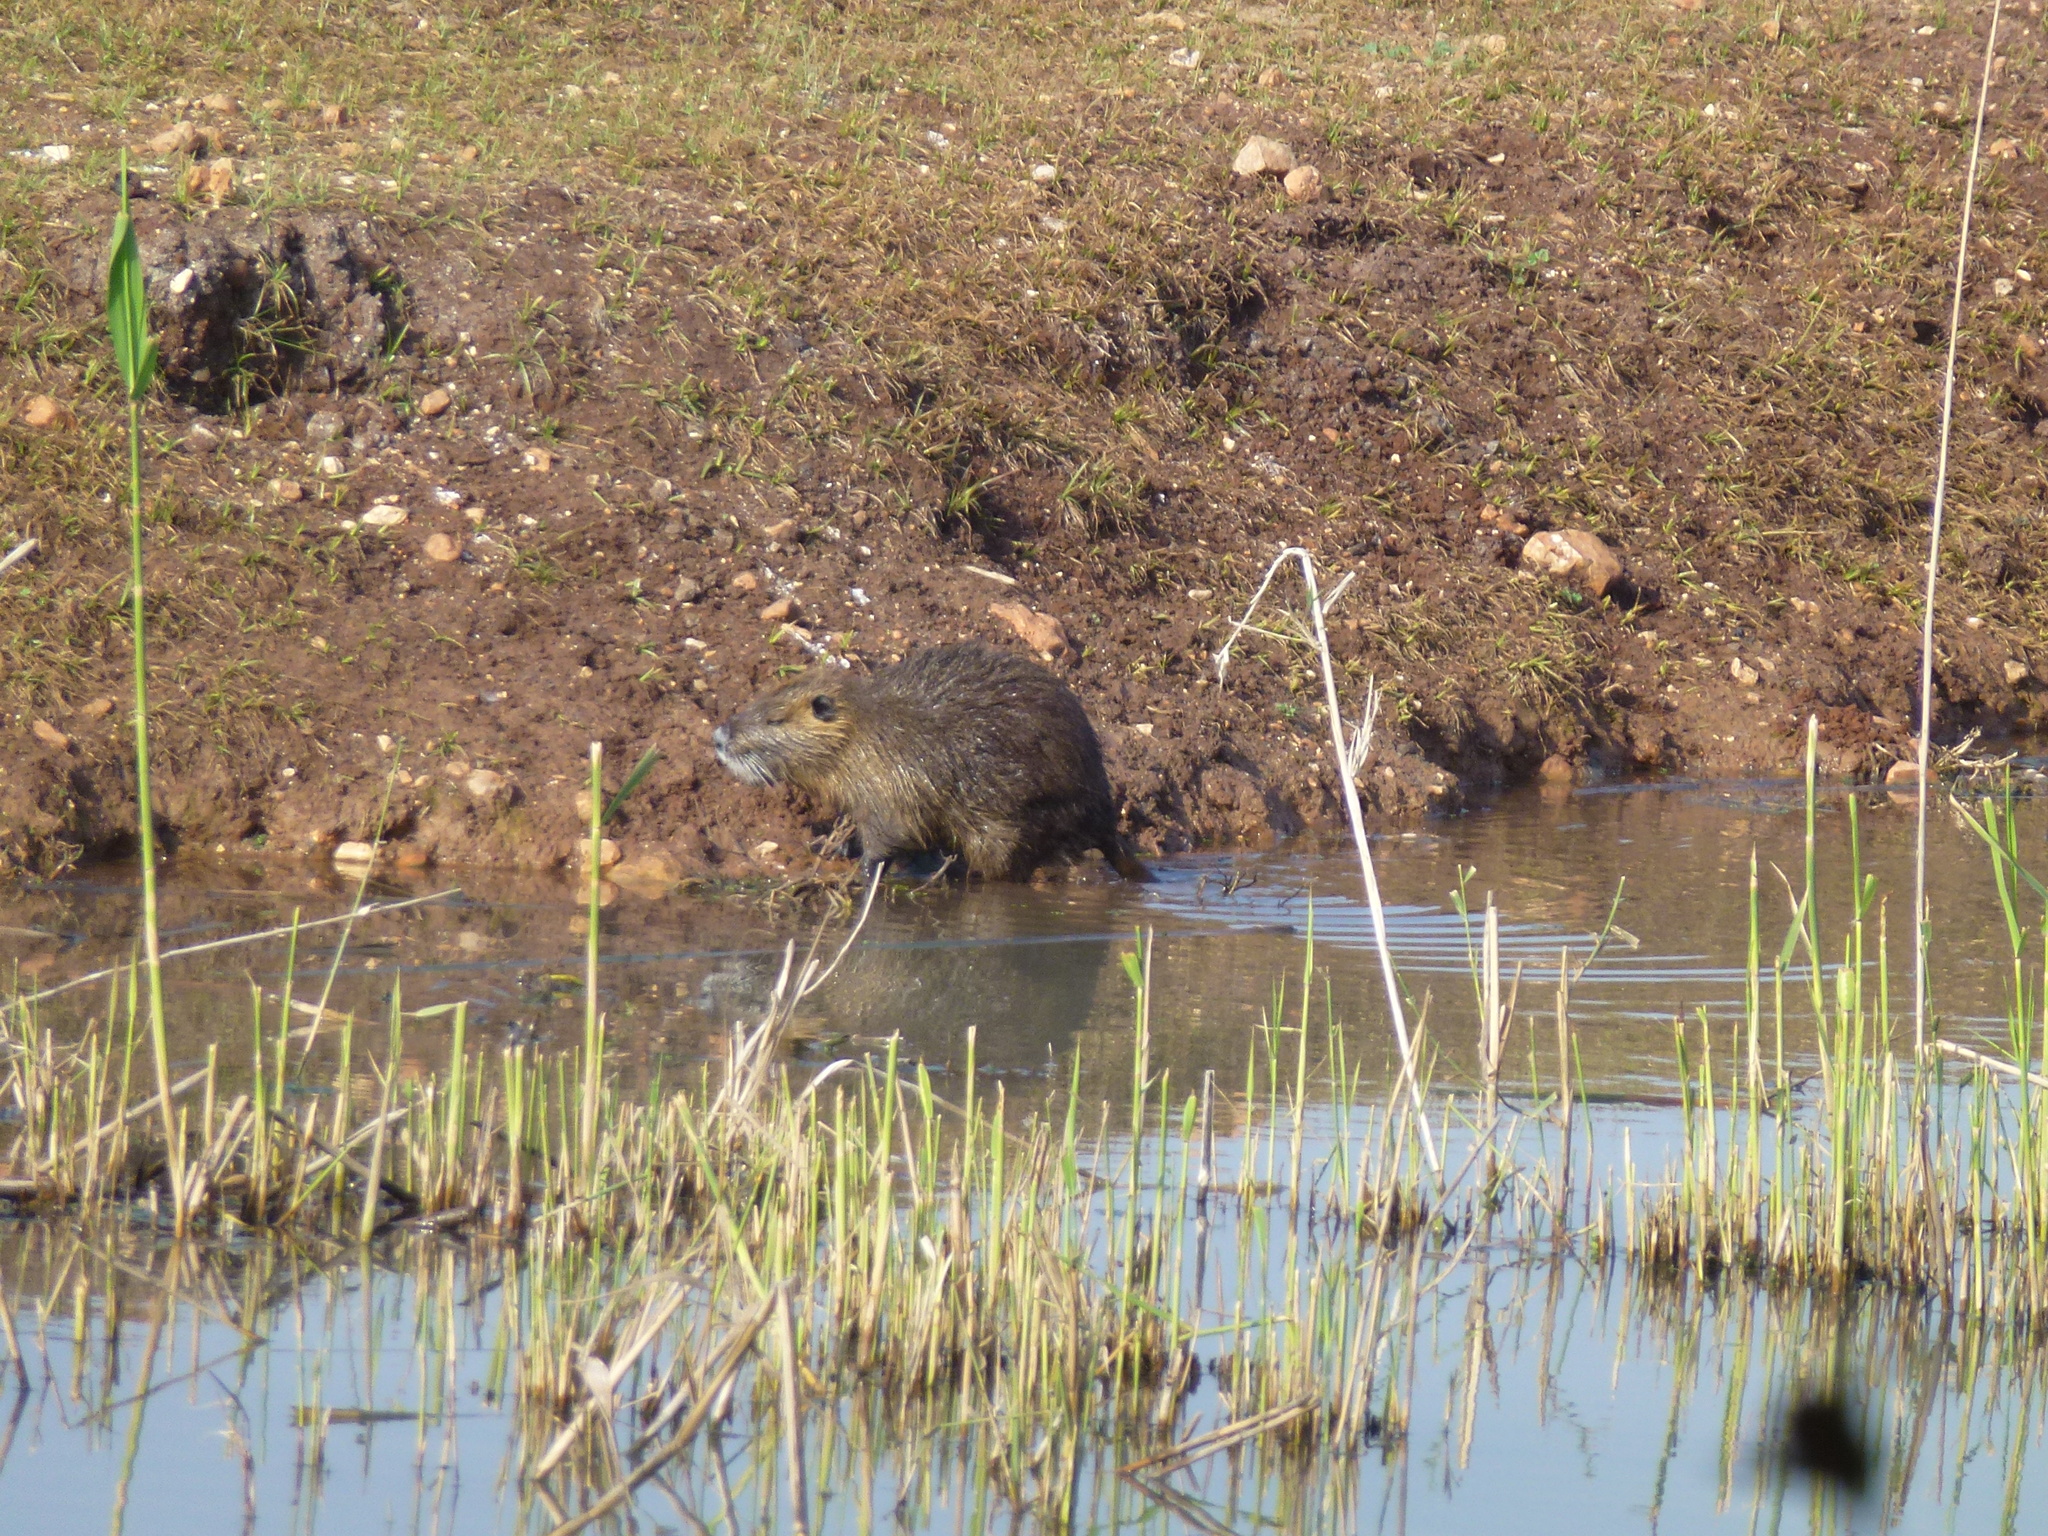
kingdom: Animalia
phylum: Chordata
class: Mammalia
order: Rodentia
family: Myocastoridae
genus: Myocastor
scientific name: Myocastor coypus
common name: Coypu
